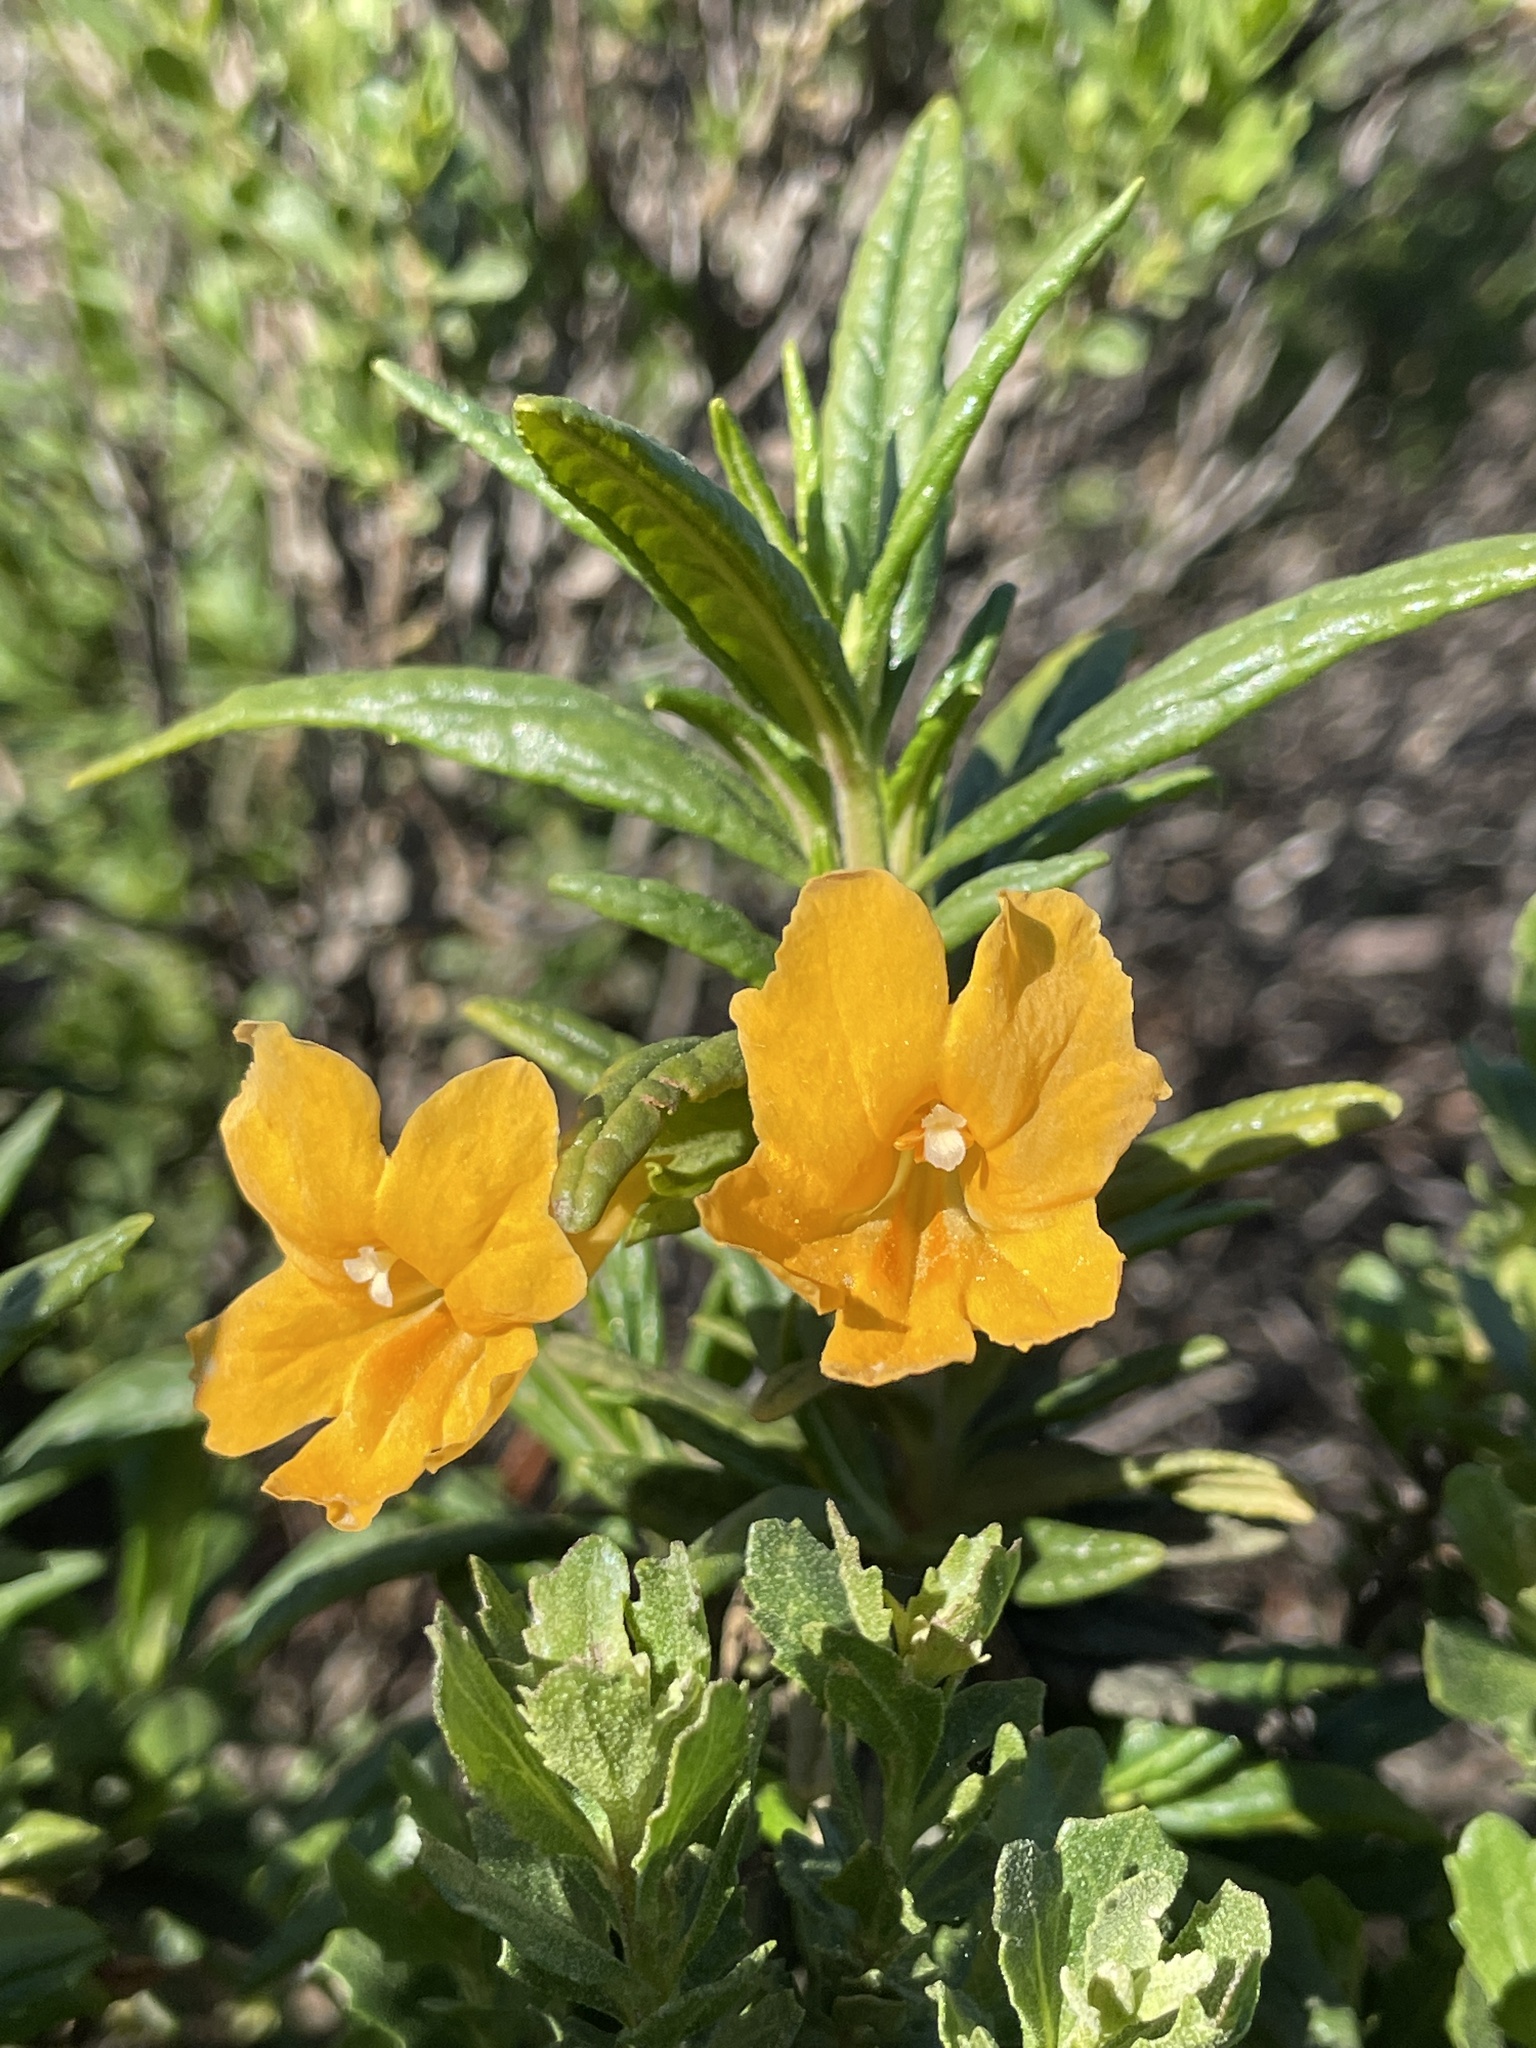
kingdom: Plantae
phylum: Tracheophyta
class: Magnoliopsida
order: Lamiales
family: Phrymaceae
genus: Diplacus
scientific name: Diplacus aurantiacus
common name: Bush monkey-flower
